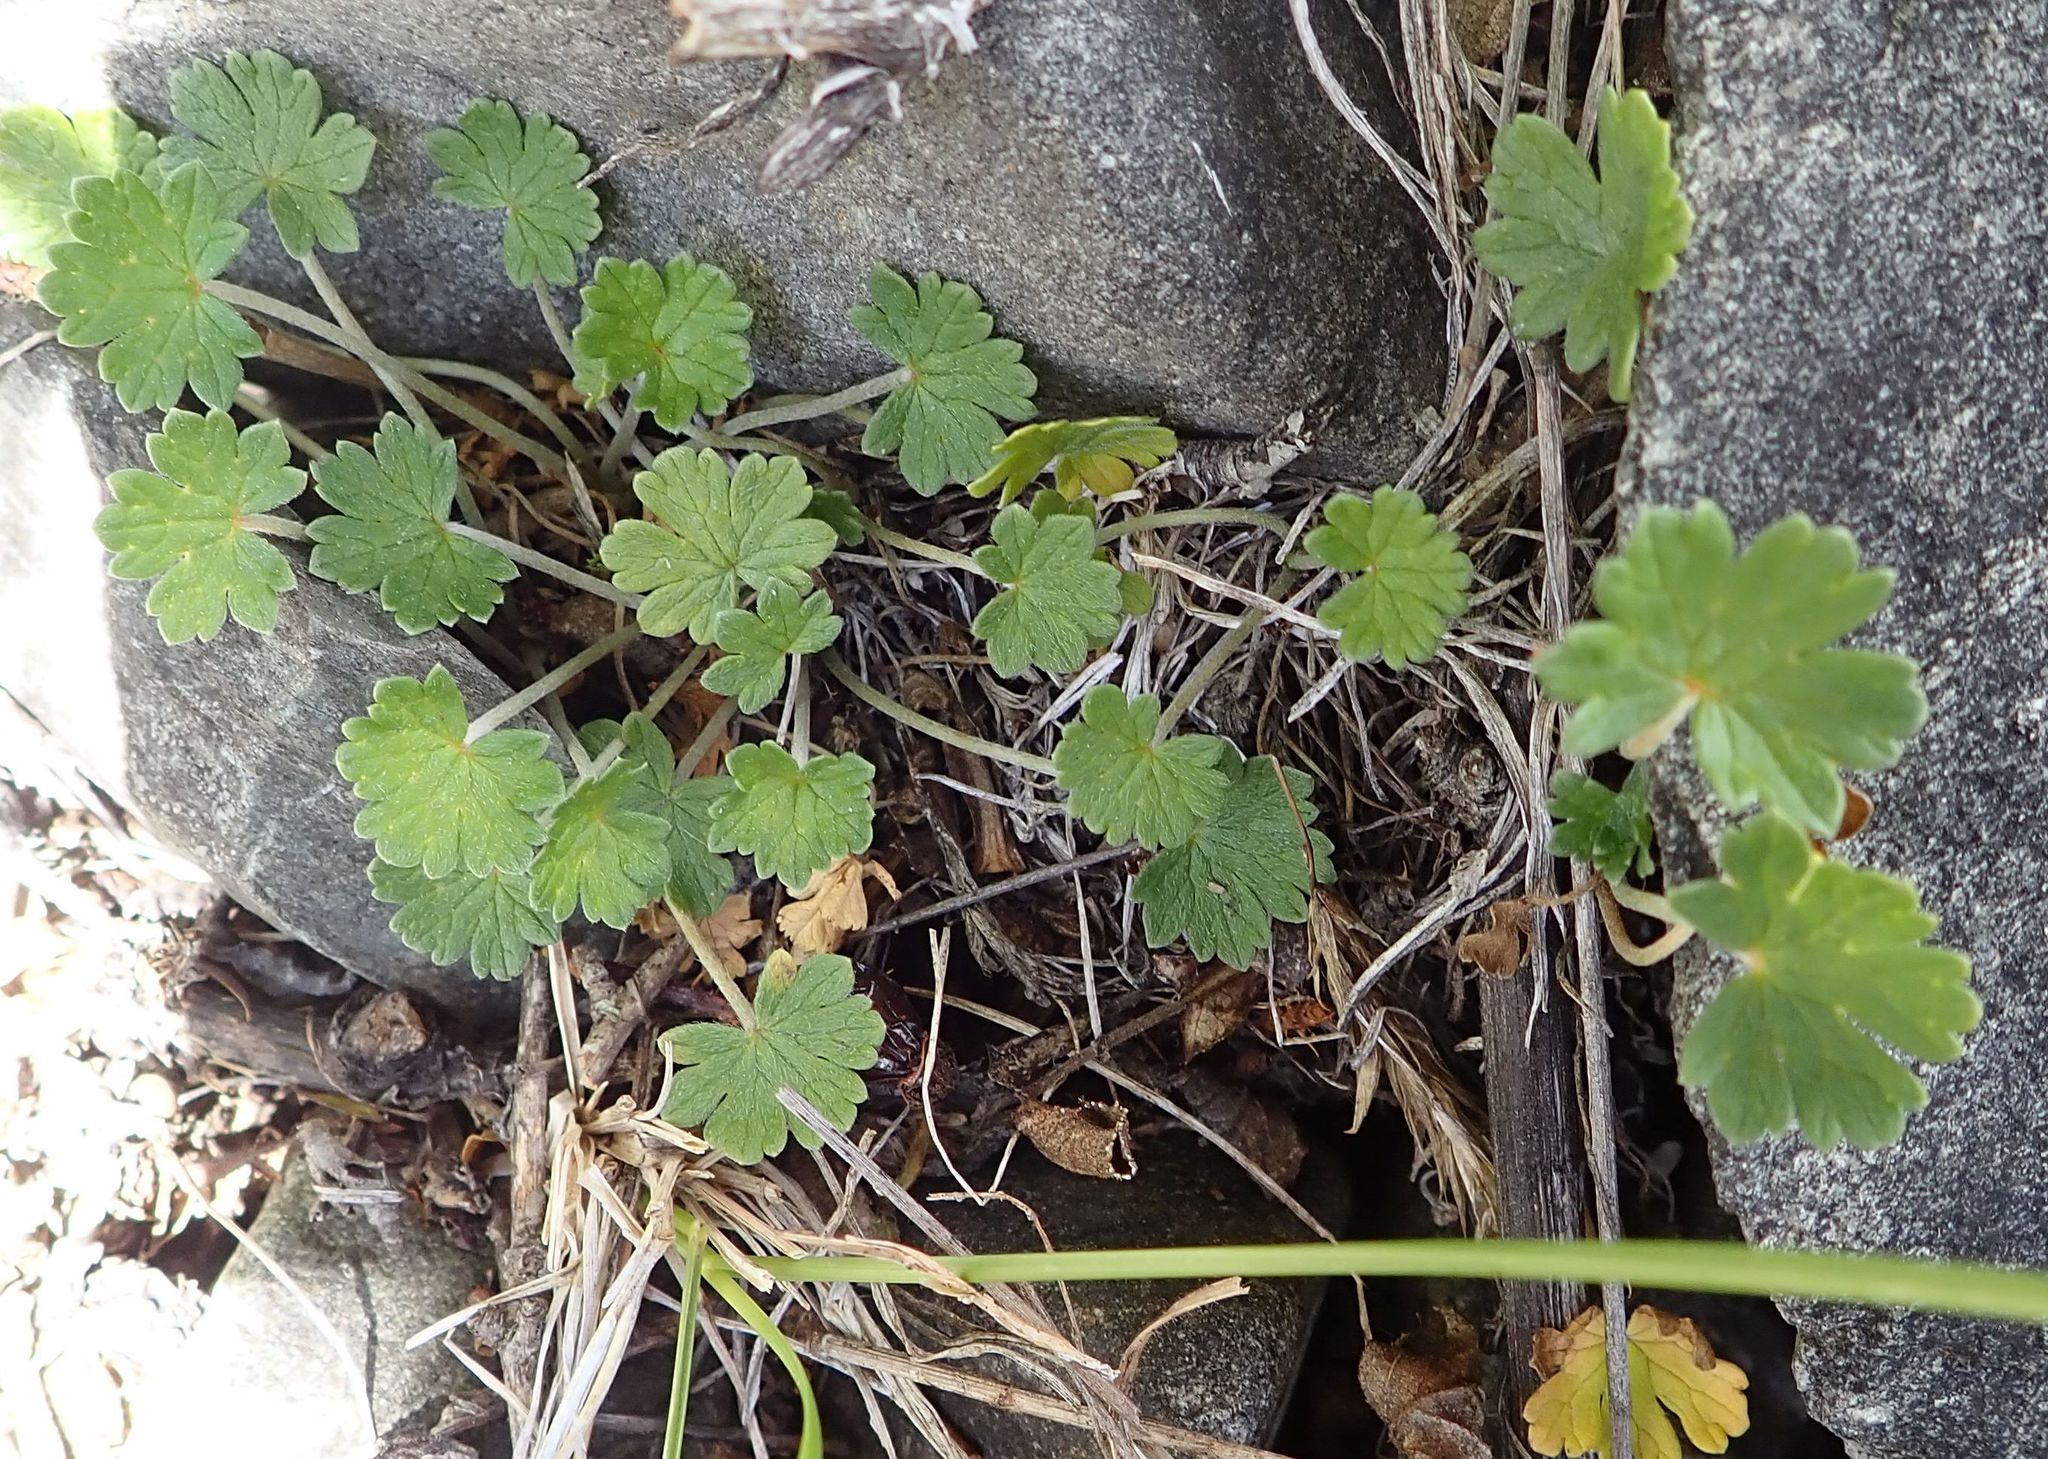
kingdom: Plantae
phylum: Tracheophyta
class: Magnoliopsida
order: Geraniales
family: Geraniaceae
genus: Geranium
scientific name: Geranium brevicaule
